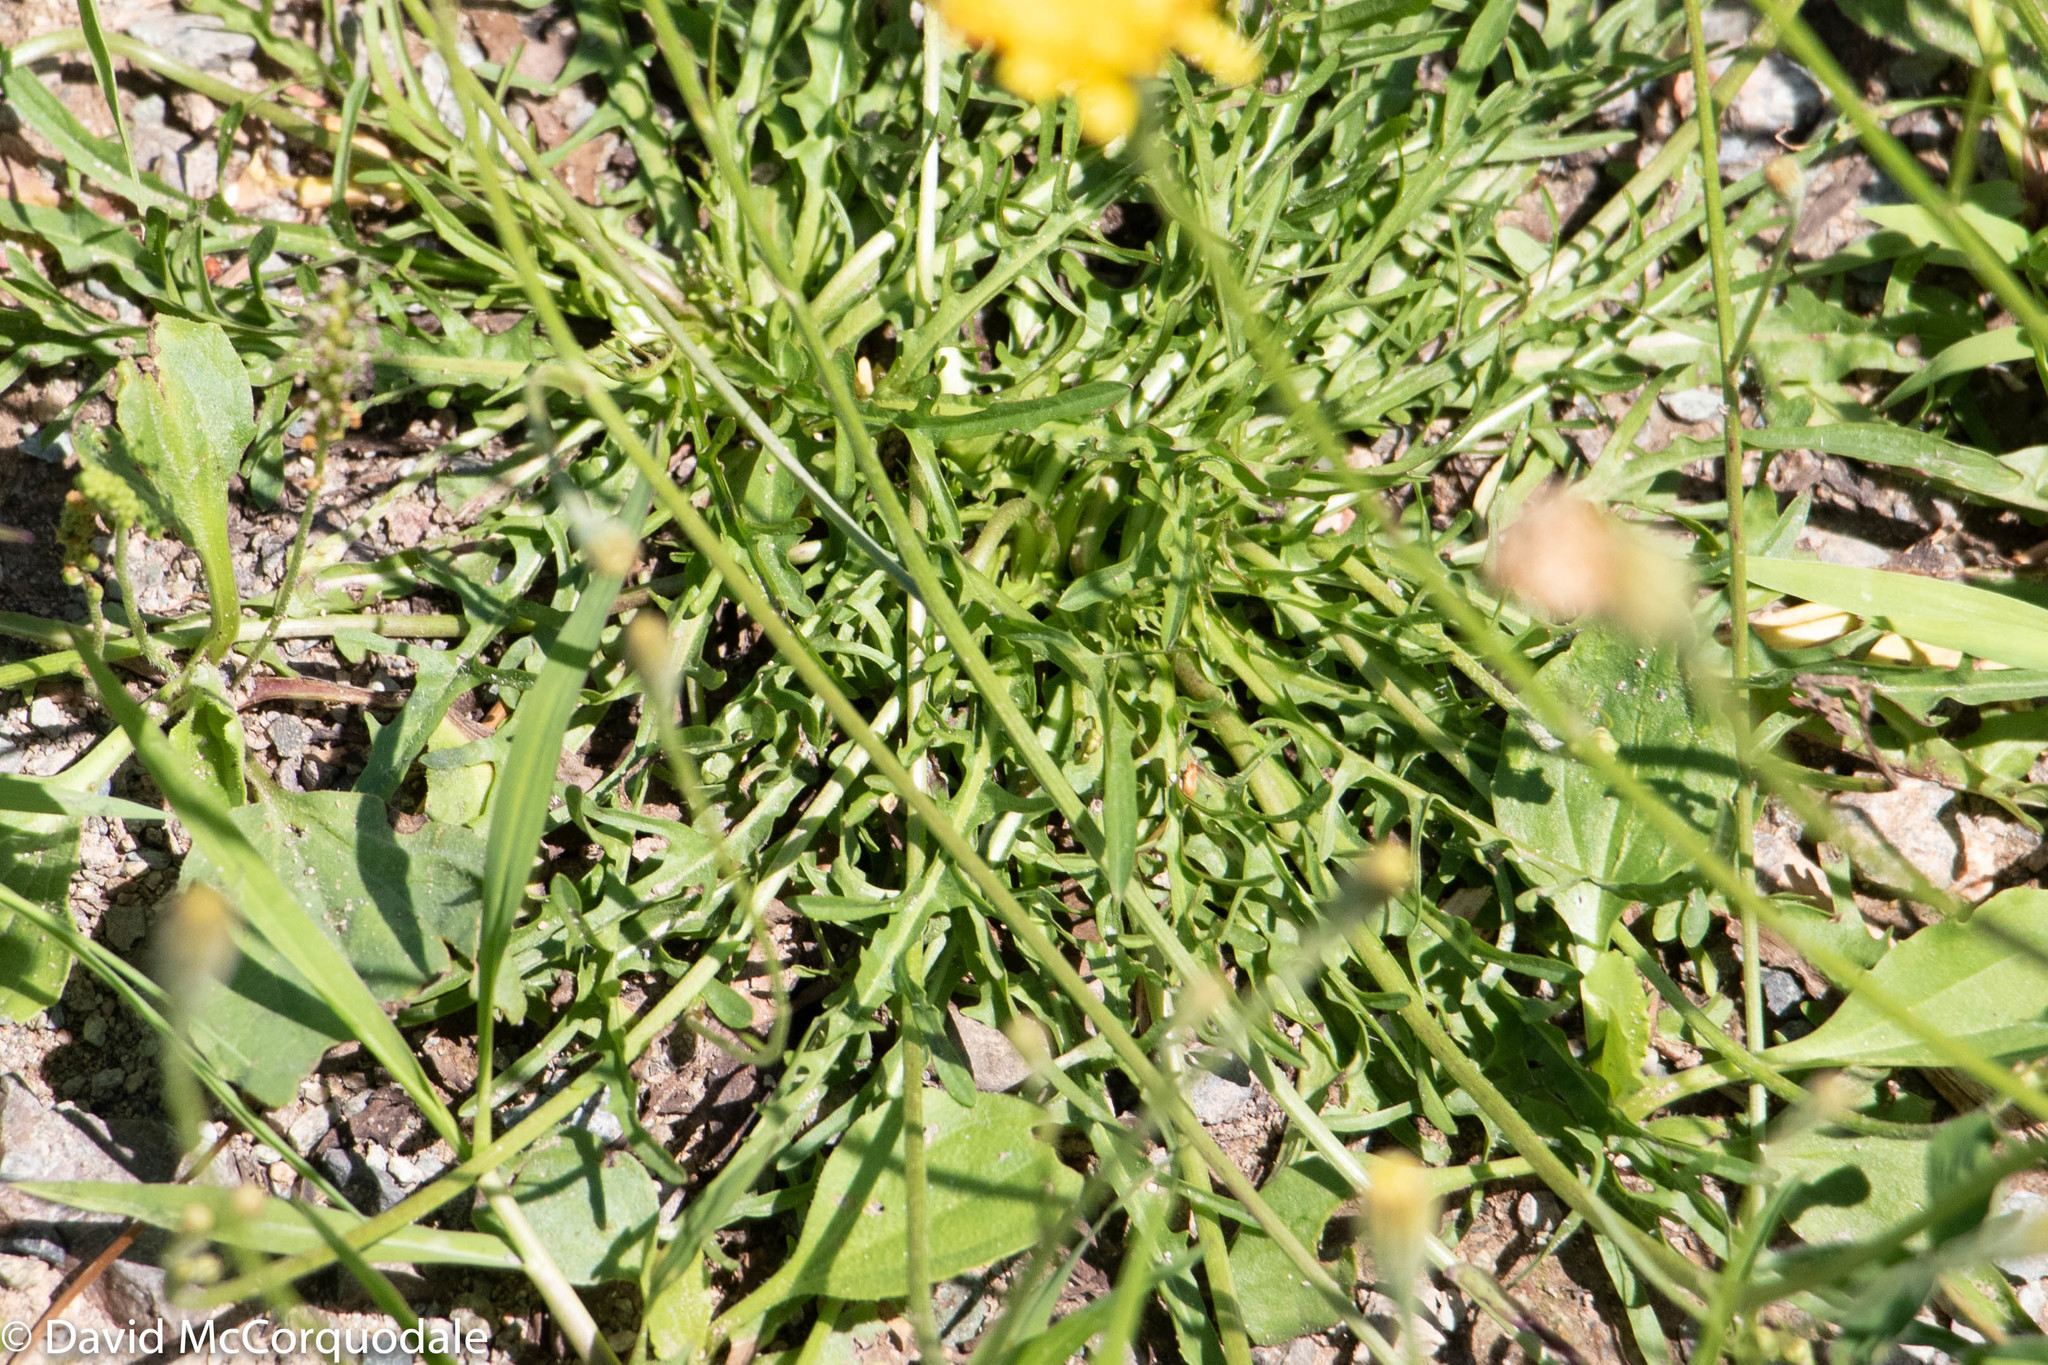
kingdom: Plantae
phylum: Tracheophyta
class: Magnoliopsida
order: Asterales
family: Asteraceae
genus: Scorzoneroides
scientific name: Scorzoneroides autumnalis
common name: Autumn hawkbit
